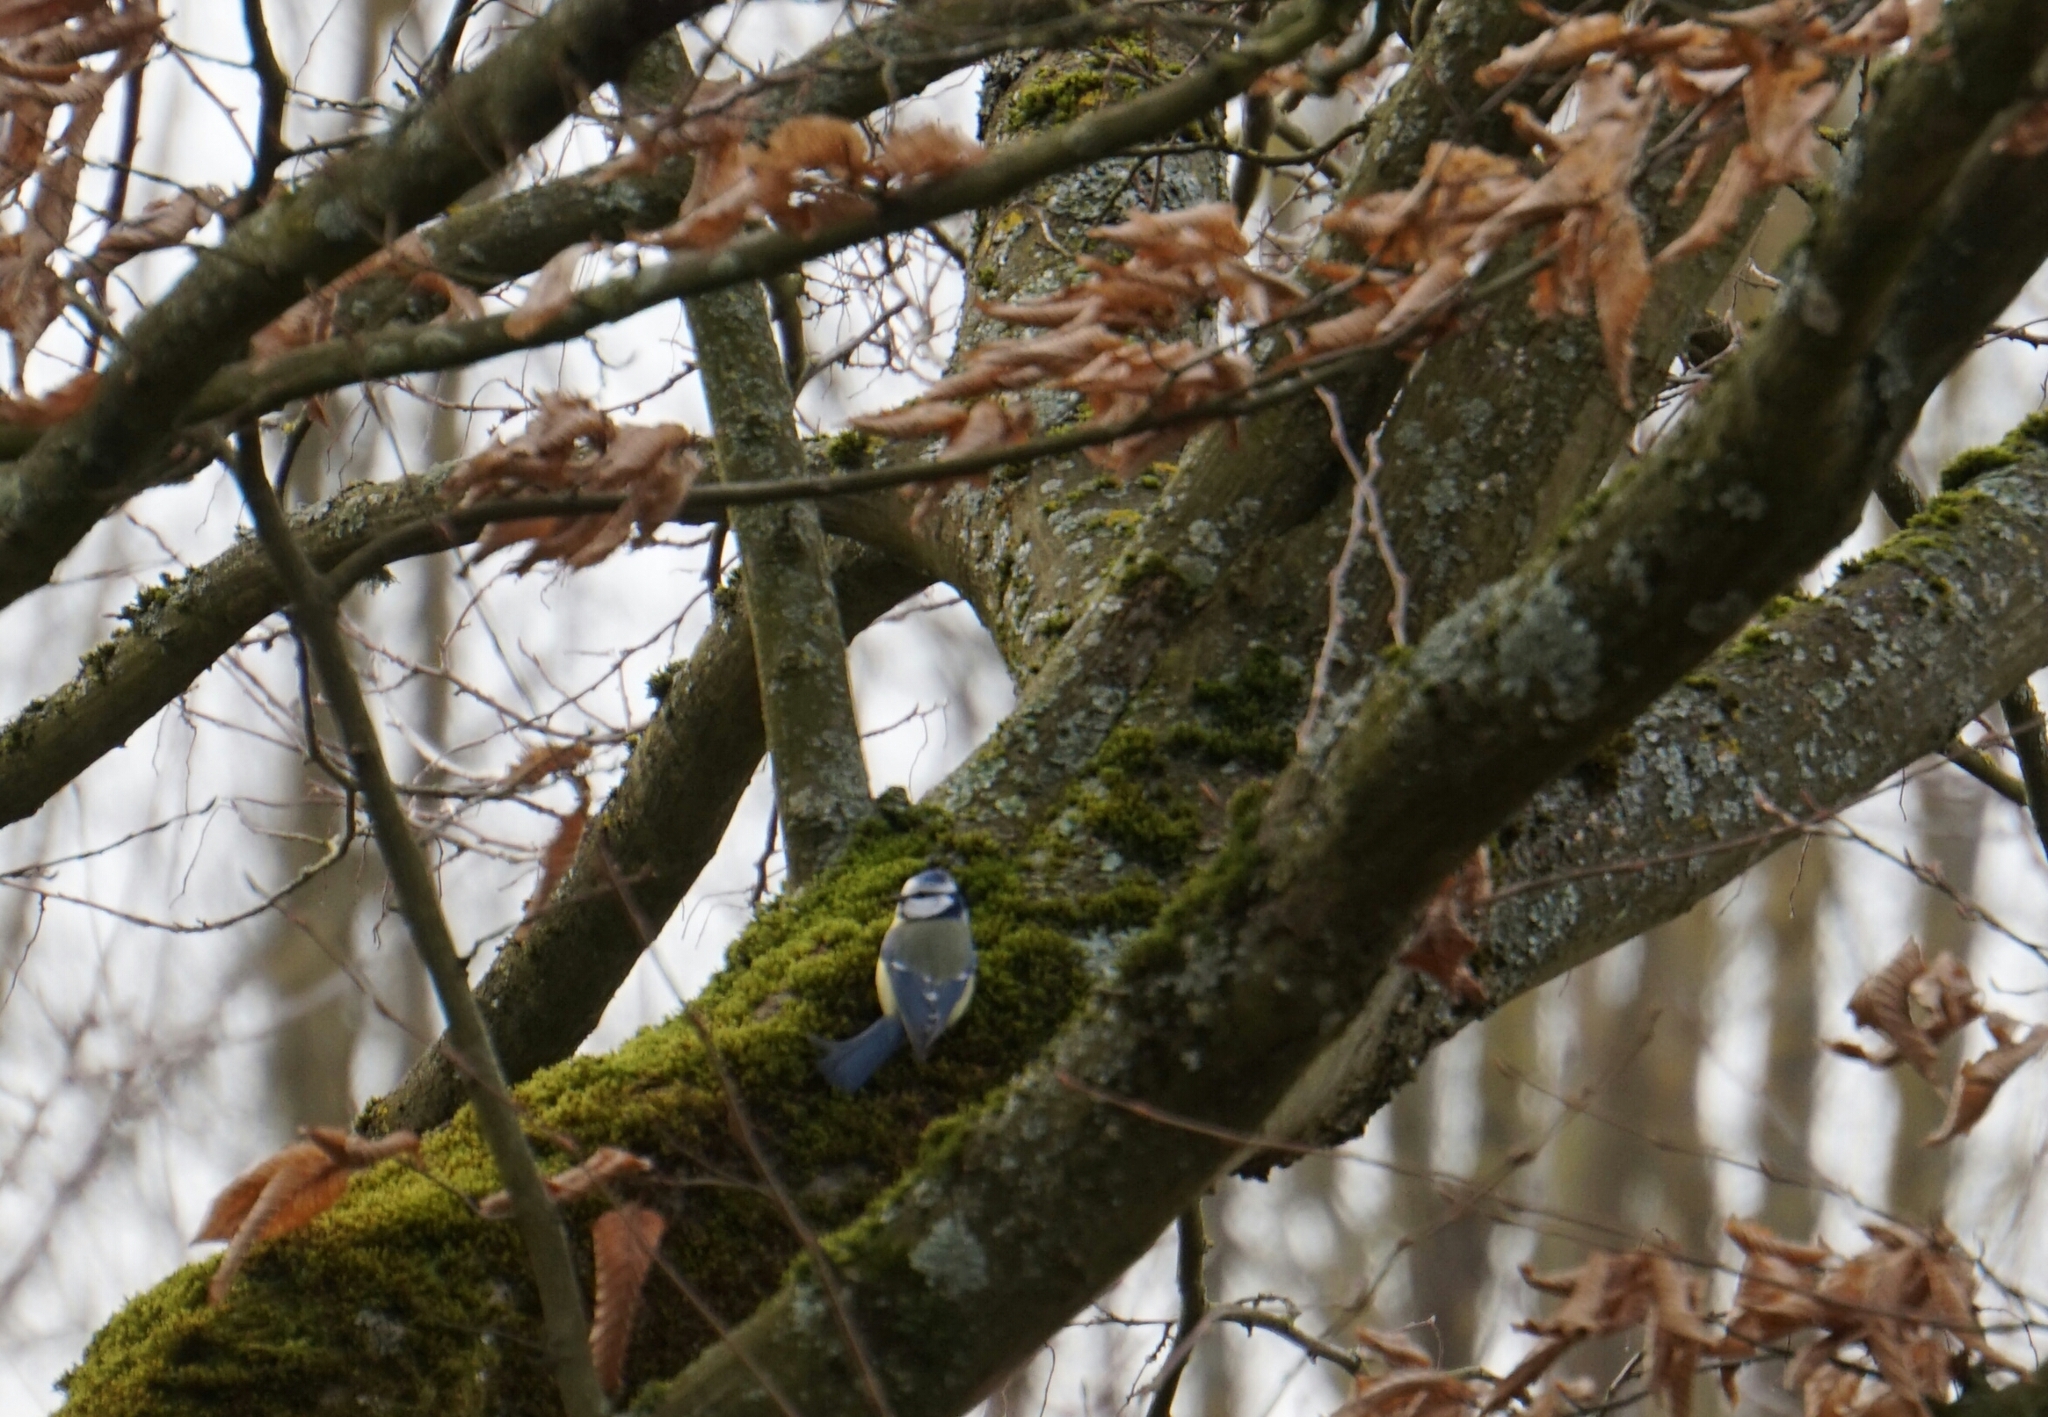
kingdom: Animalia
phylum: Chordata
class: Aves
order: Passeriformes
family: Paridae
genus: Cyanistes
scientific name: Cyanistes caeruleus
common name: Eurasian blue tit
